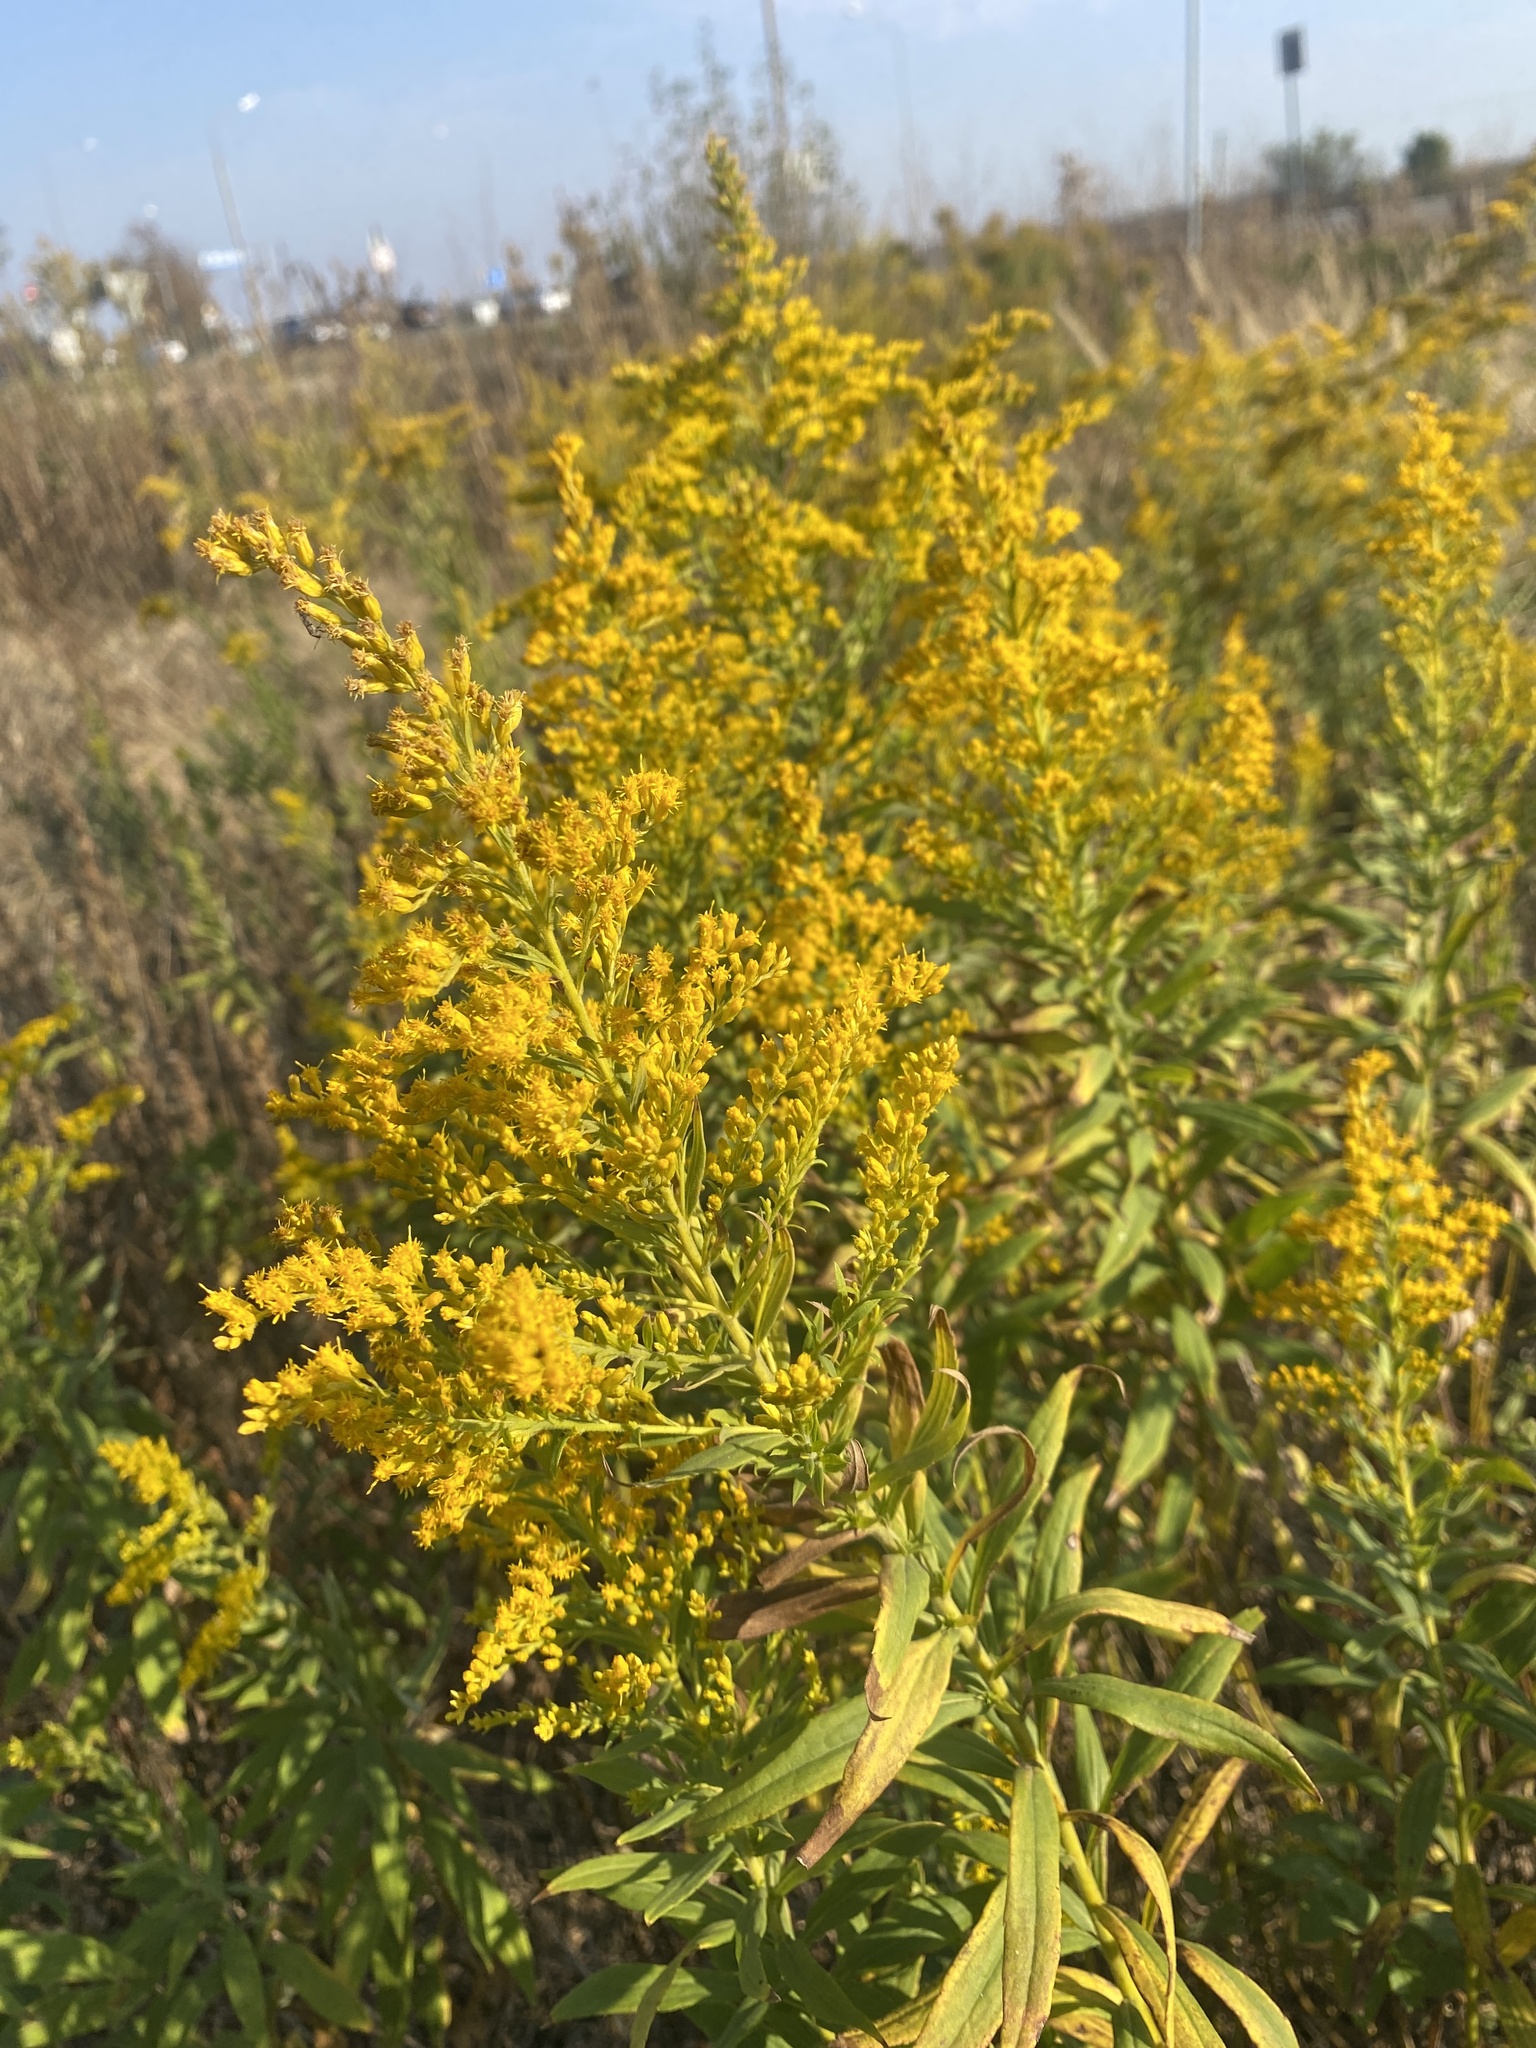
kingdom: Plantae
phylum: Tracheophyta
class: Magnoliopsida
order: Asterales
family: Asteraceae
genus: Solidago
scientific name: Solidago canadensis
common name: Canada goldenrod
